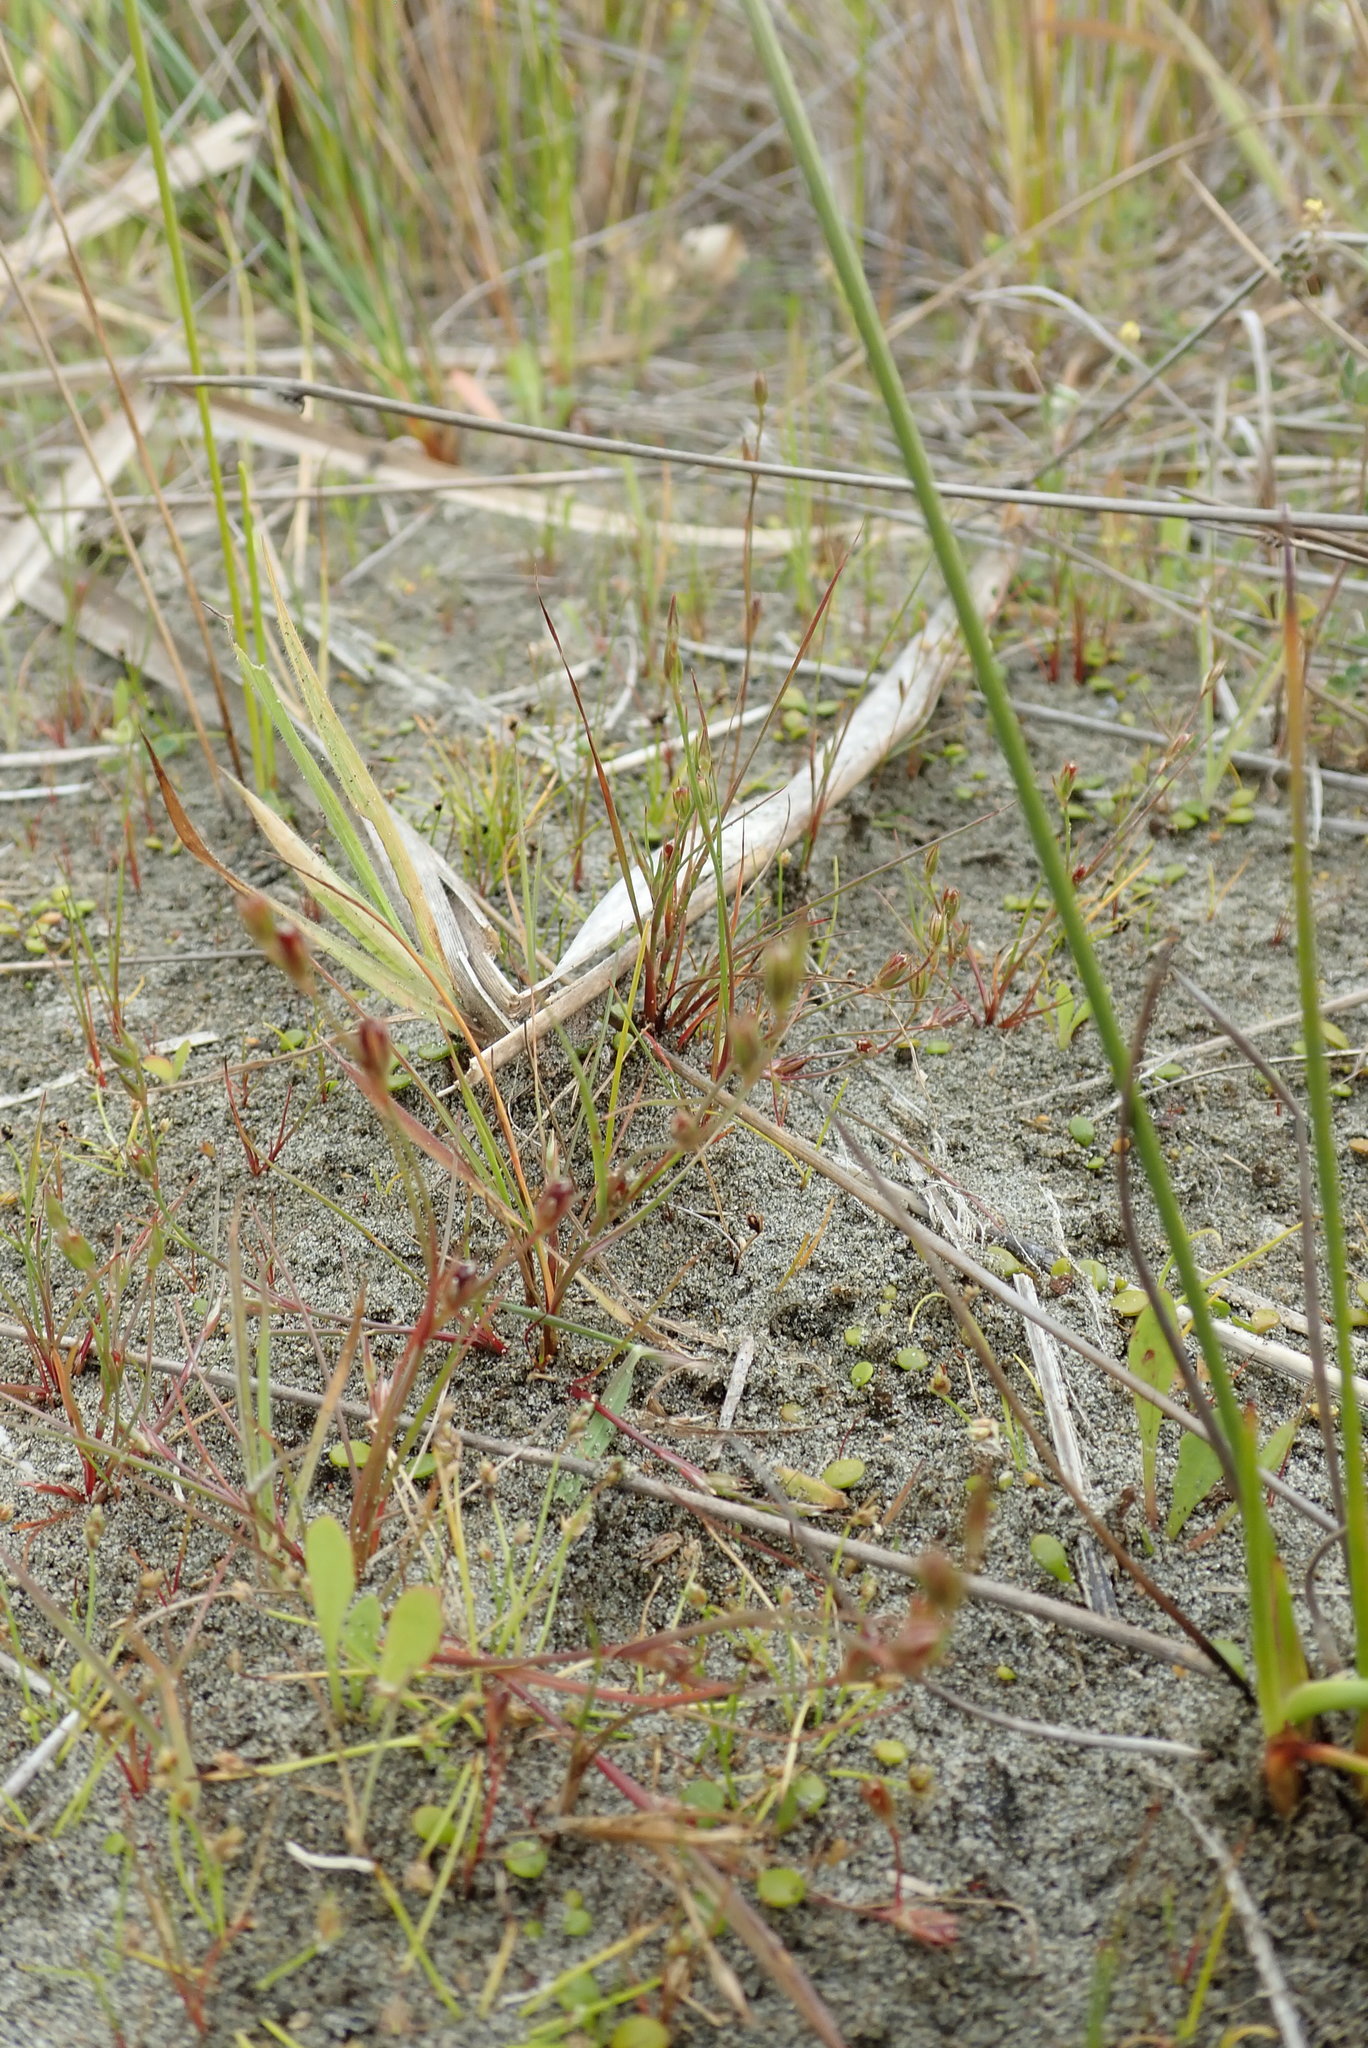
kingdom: Plantae
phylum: Tracheophyta
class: Liliopsida
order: Poales
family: Juncaceae
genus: Juncus
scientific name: Juncus bufonius
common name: Toad rush
